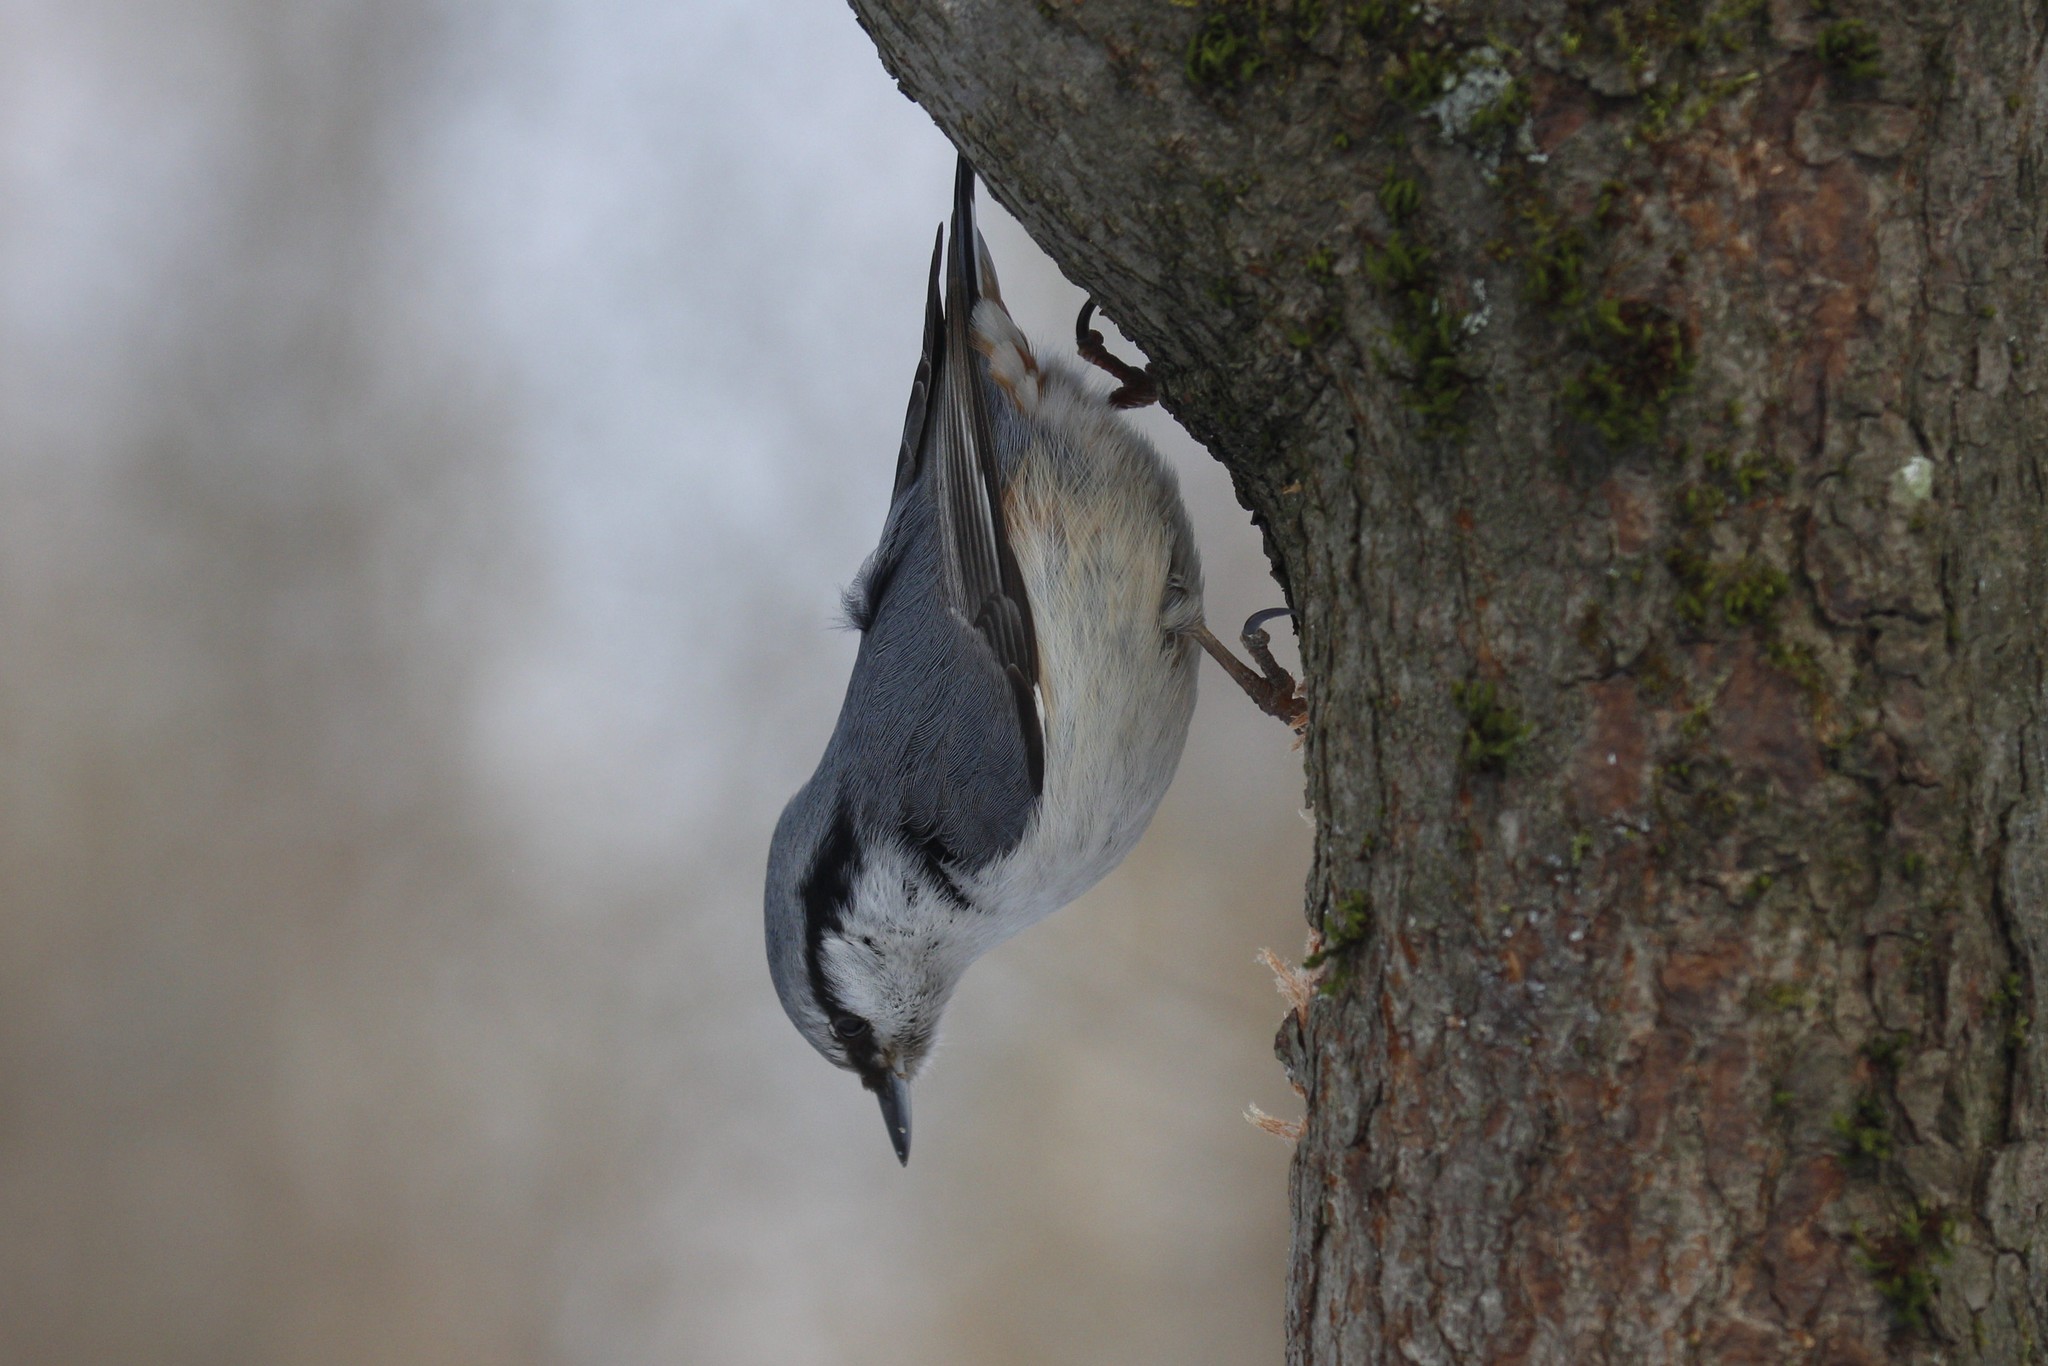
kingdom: Animalia
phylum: Chordata
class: Aves
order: Passeriformes
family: Sittidae
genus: Sitta
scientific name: Sitta europaea
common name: Eurasian nuthatch
